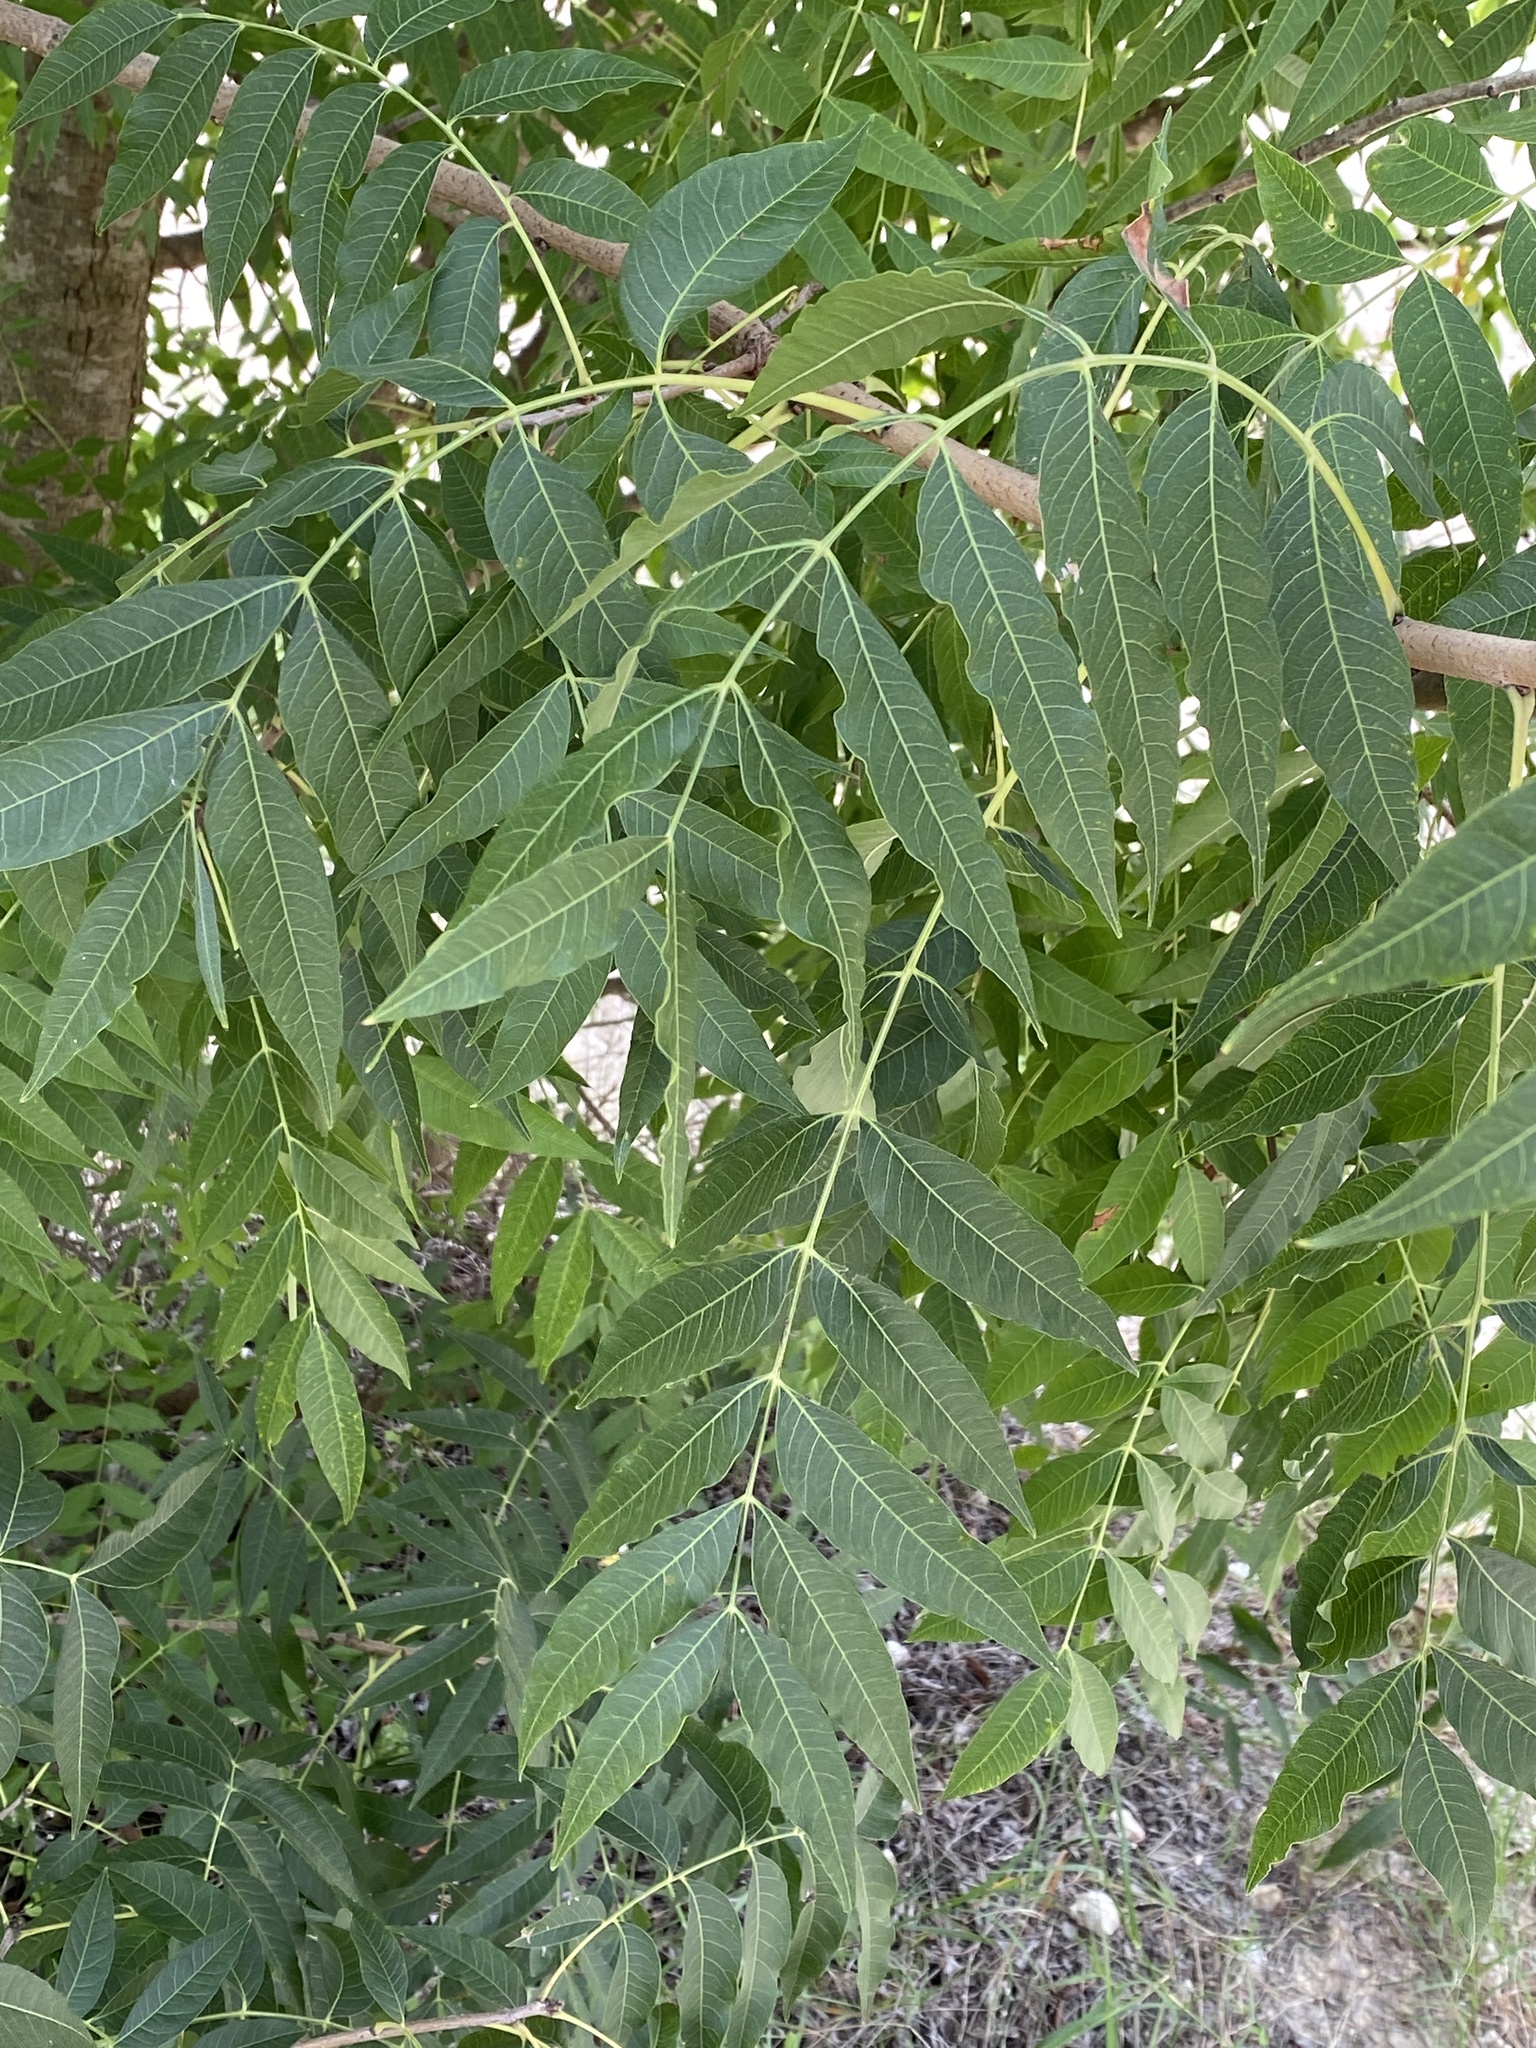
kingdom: Plantae
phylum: Tracheophyta
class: Magnoliopsida
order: Sapindales
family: Anacardiaceae
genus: Pistacia
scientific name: Pistacia chinensis
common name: Chinese pistache
